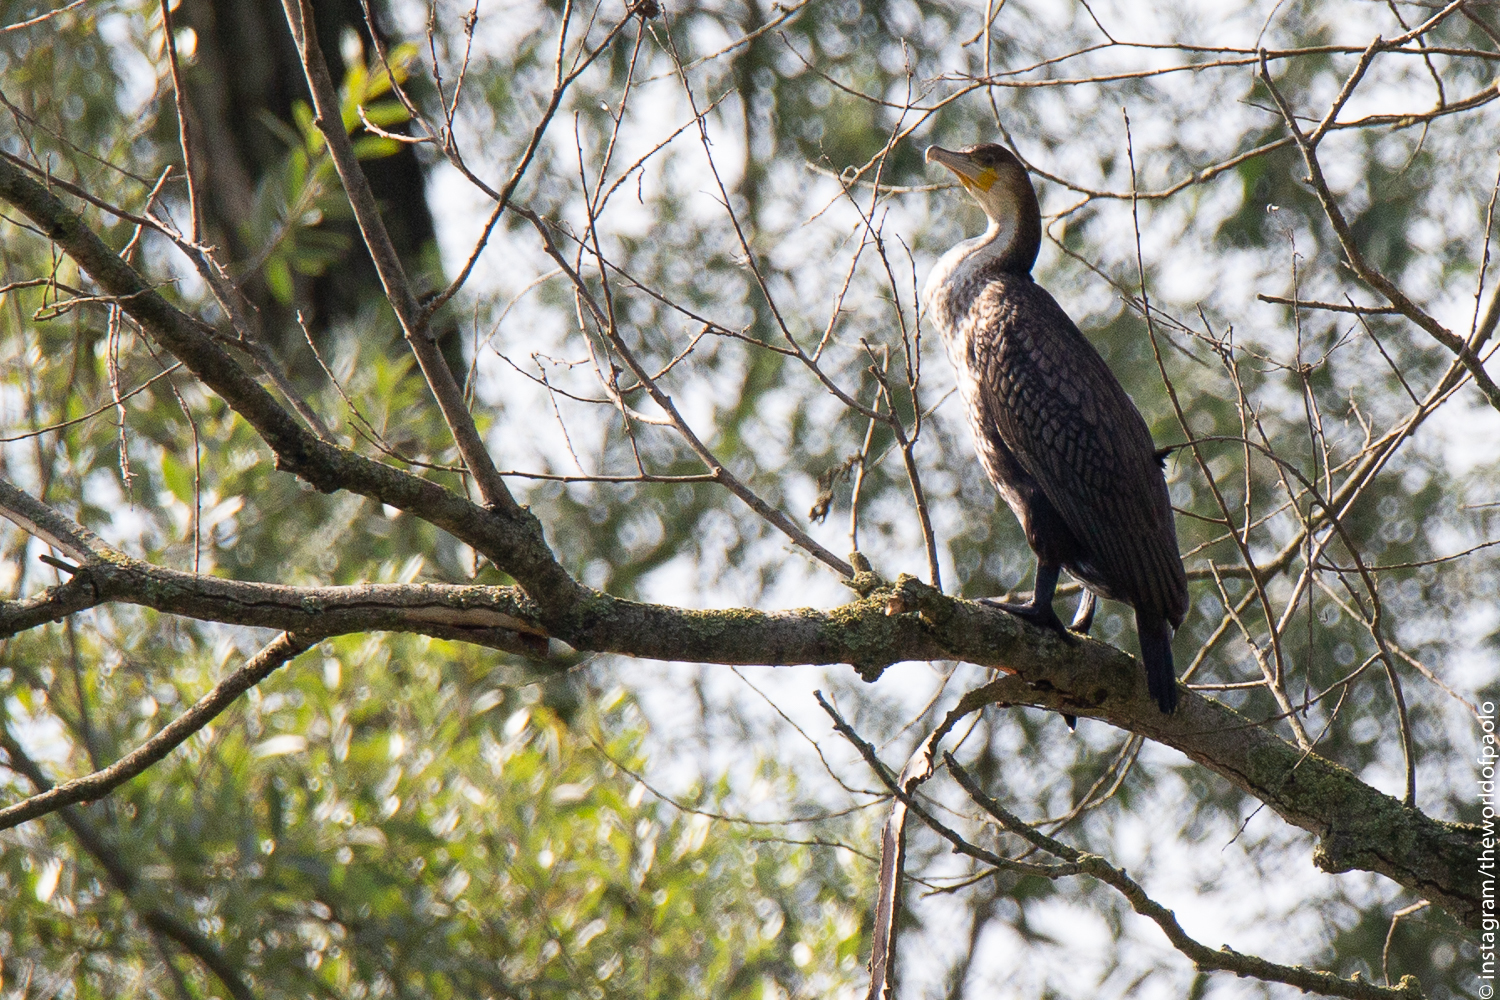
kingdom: Animalia
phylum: Chordata
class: Aves
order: Suliformes
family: Phalacrocoracidae
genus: Phalacrocorax
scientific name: Phalacrocorax carbo
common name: Great cormorant
